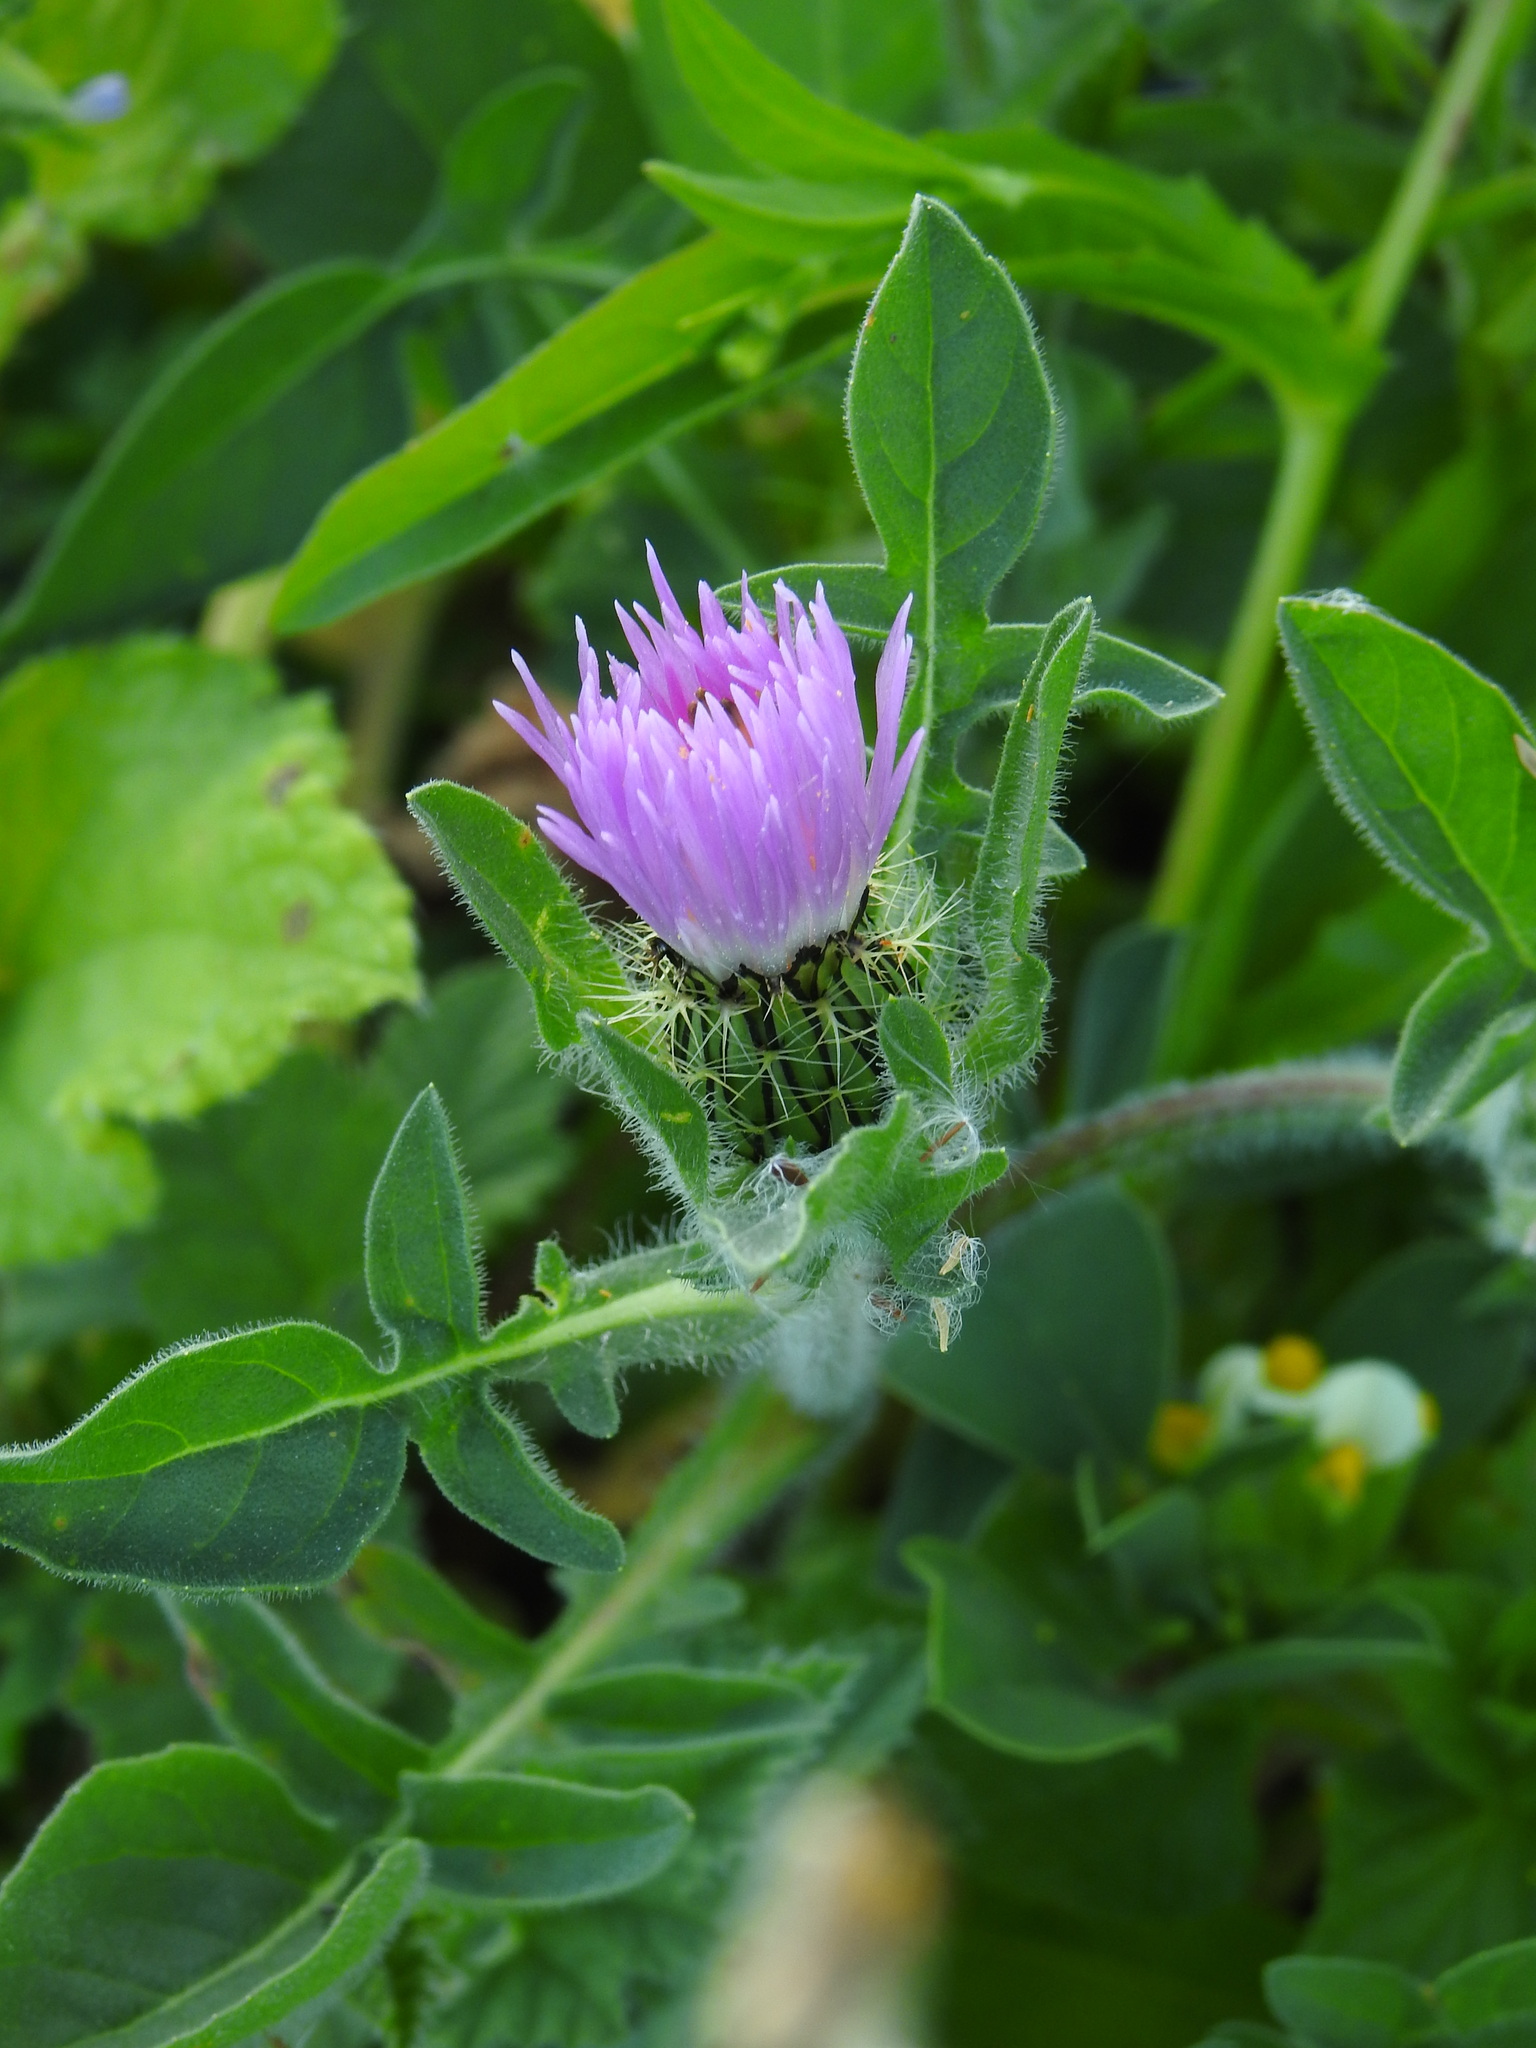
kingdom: Plantae
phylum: Tracheophyta
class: Magnoliopsida
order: Asterales
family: Asteraceae
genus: Centaurea
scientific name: Centaurea pullata
